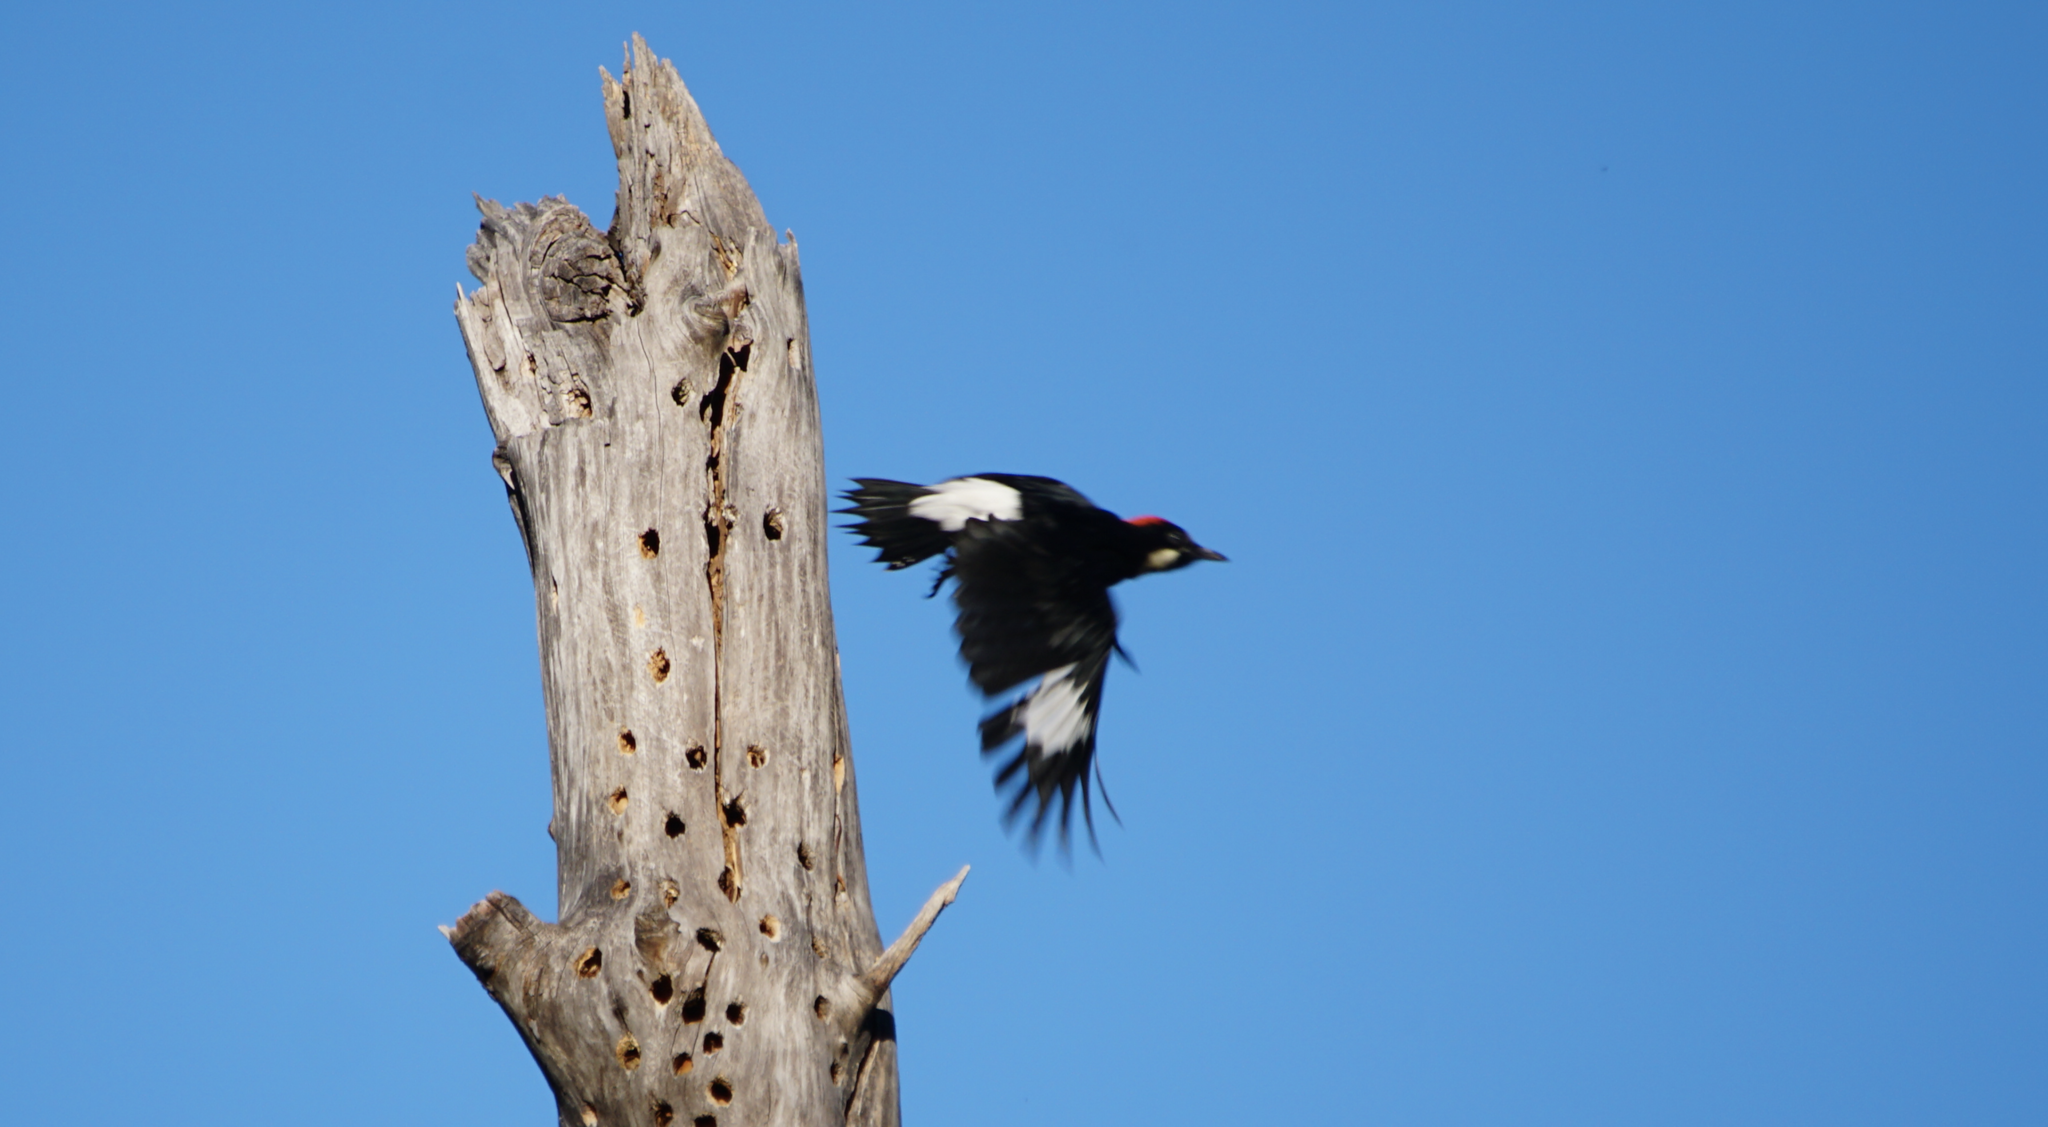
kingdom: Animalia
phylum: Chordata
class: Aves
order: Piciformes
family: Picidae
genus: Melanerpes
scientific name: Melanerpes formicivorus
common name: Acorn woodpecker
